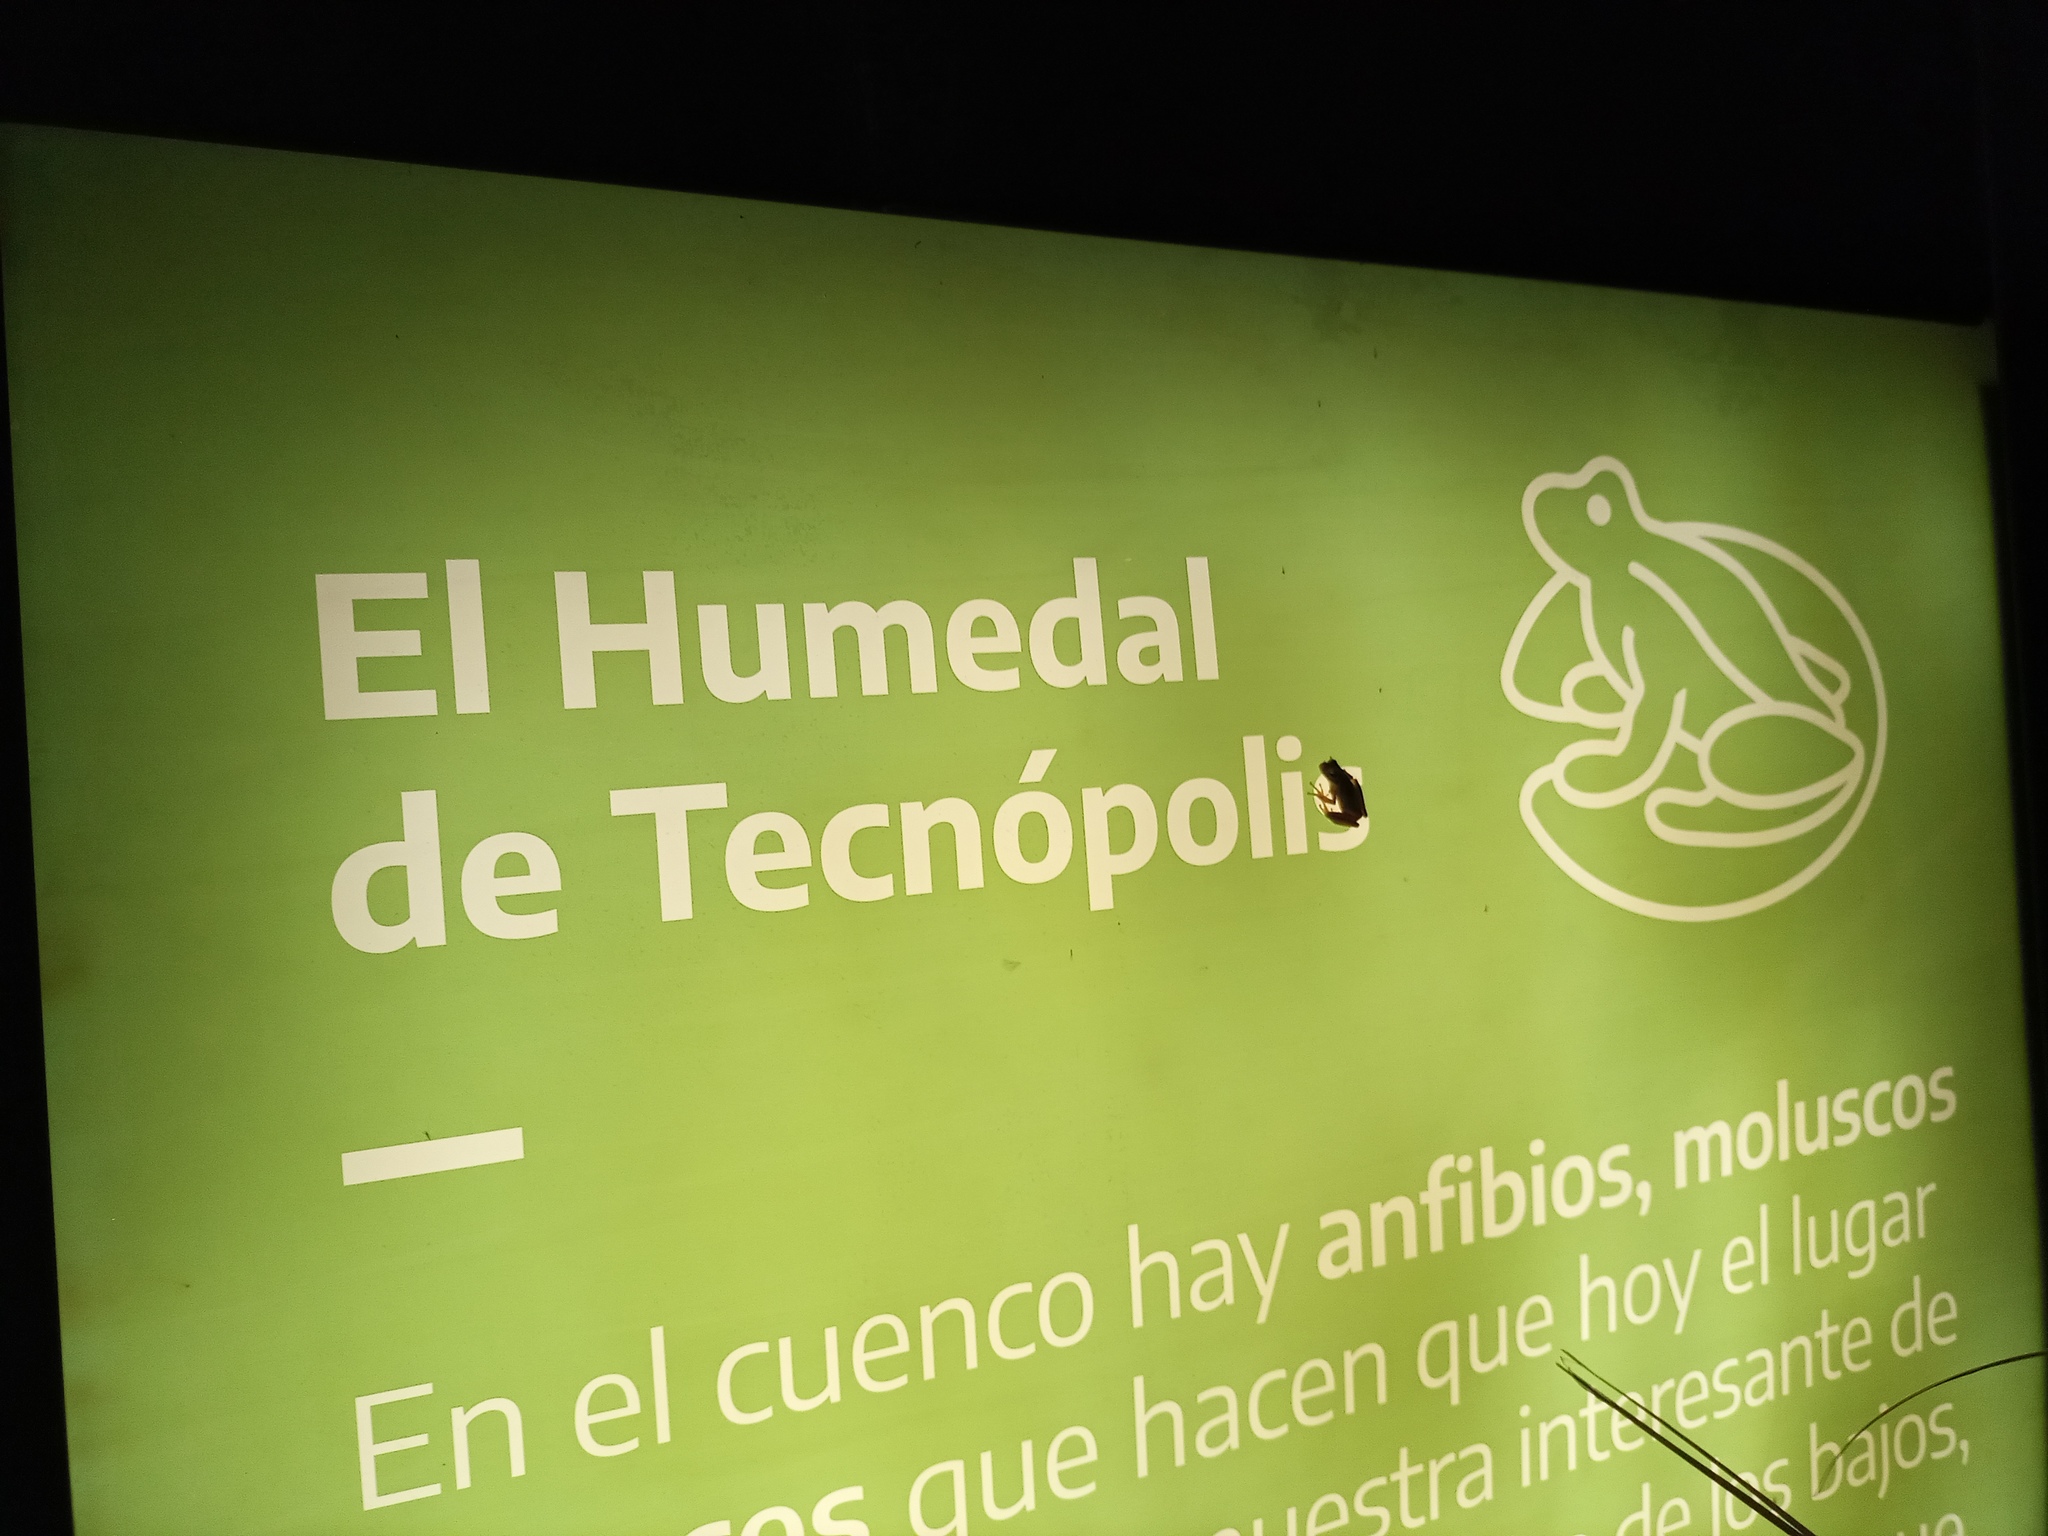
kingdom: Animalia
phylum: Chordata
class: Amphibia
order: Anura
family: Hylidae
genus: Boana
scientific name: Boana pulchella
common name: Montevideo treefrog
